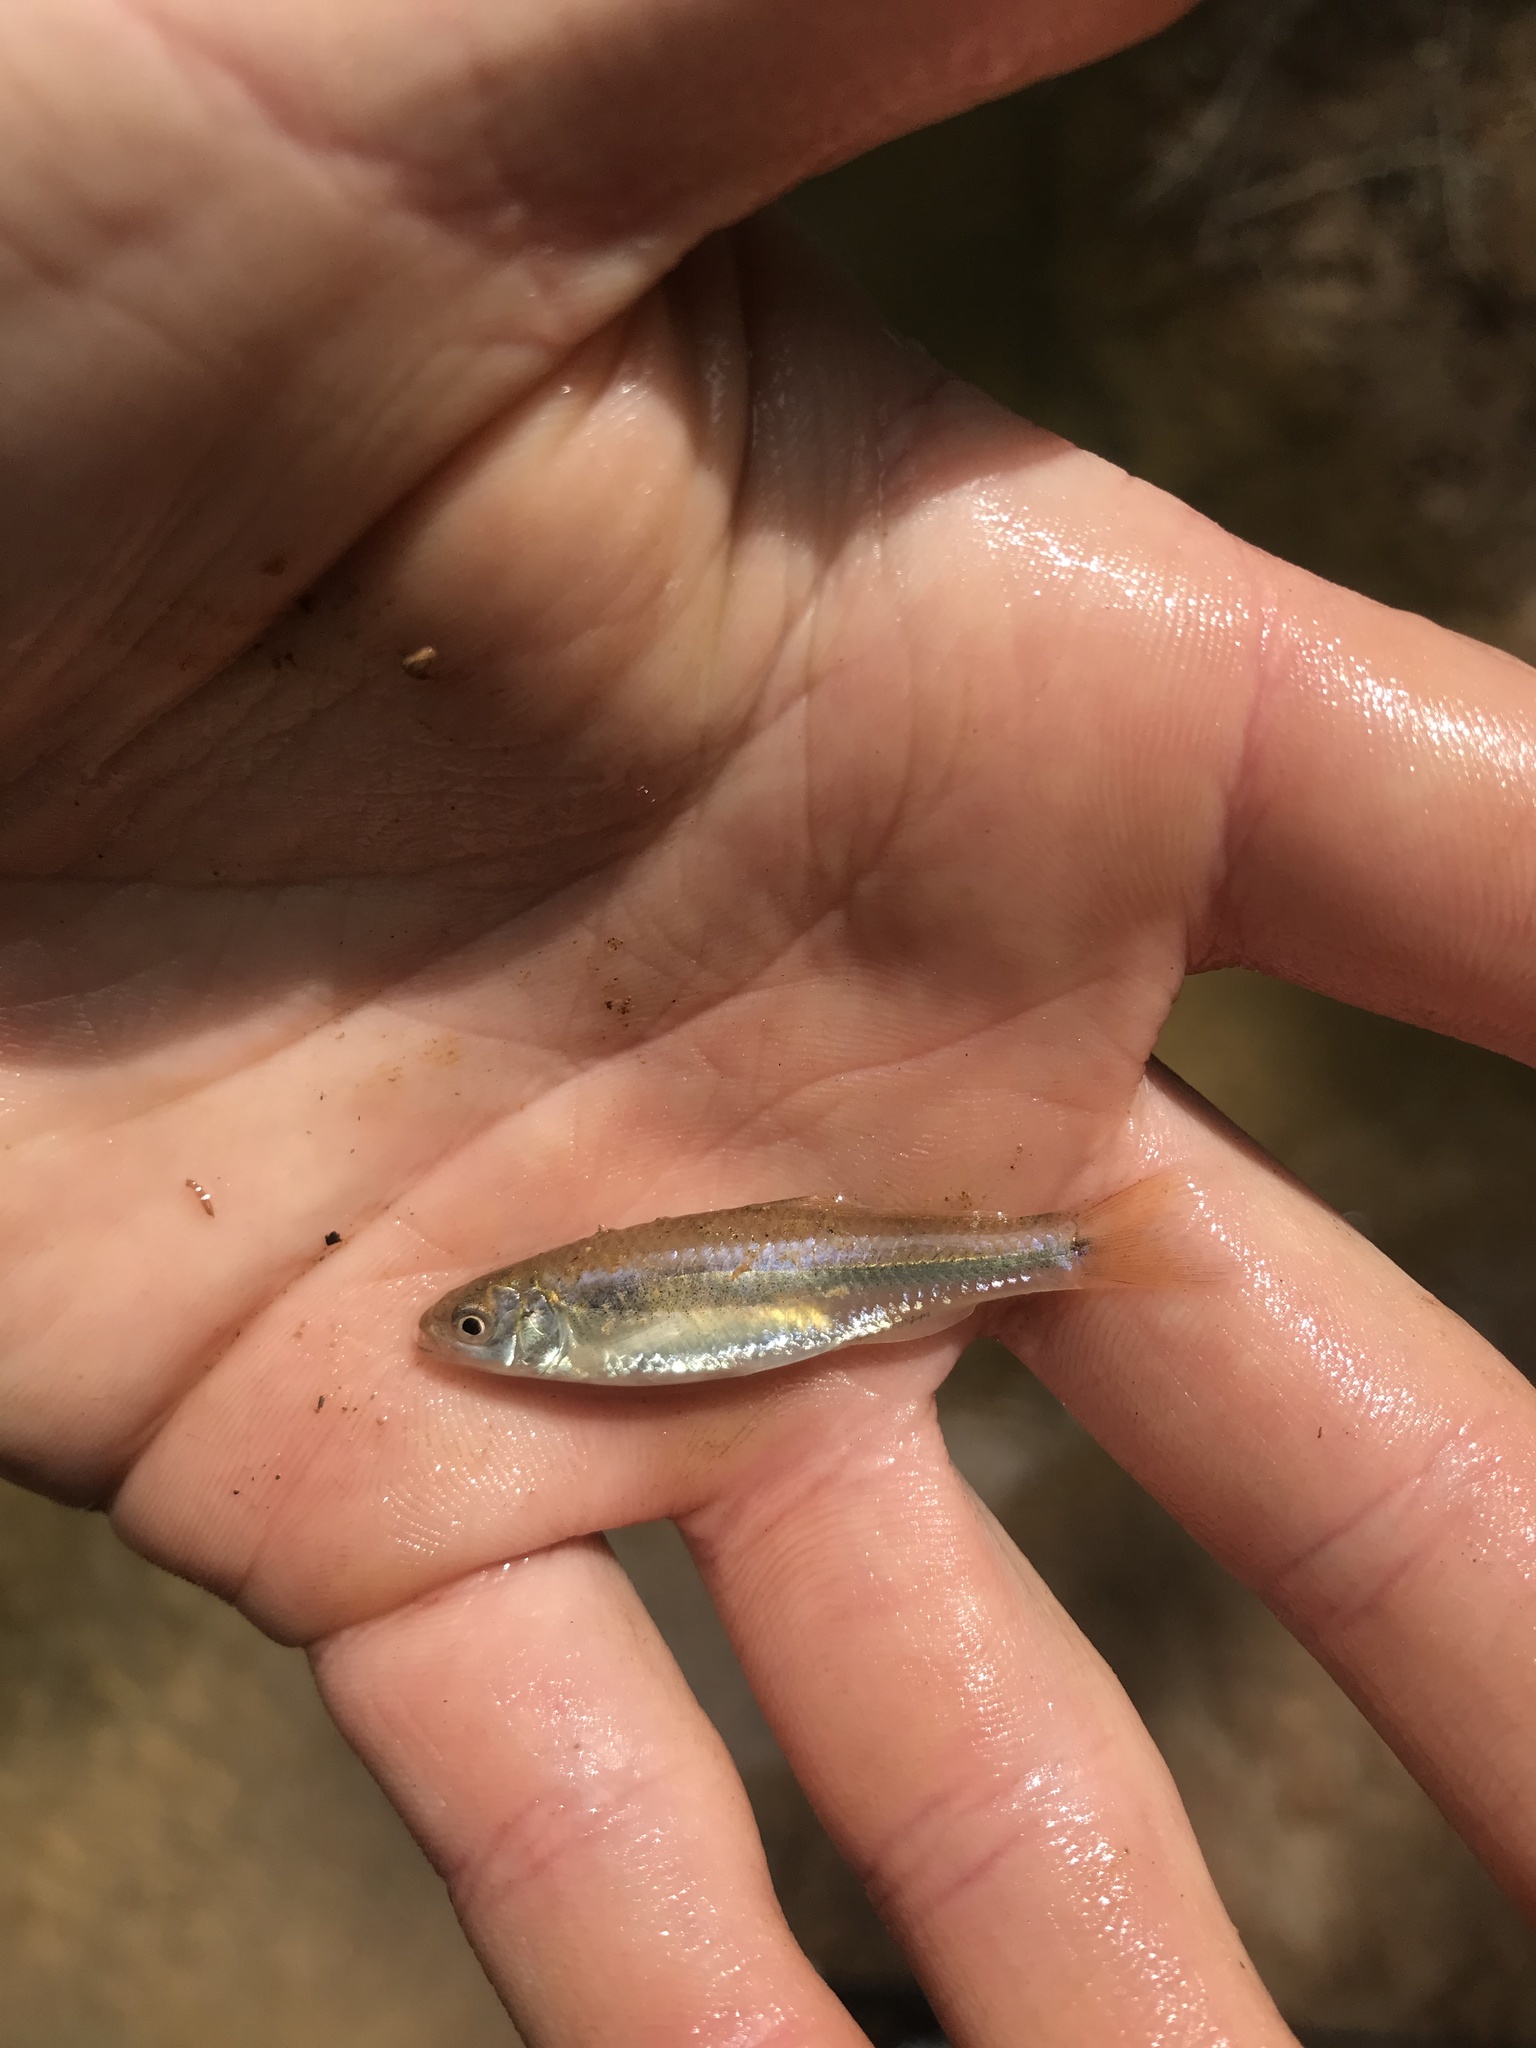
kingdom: Animalia
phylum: Chordata
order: Cypriniformes
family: Cyprinidae
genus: Cyprinella
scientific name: Cyprinella analostana
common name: Satinfin shiner
